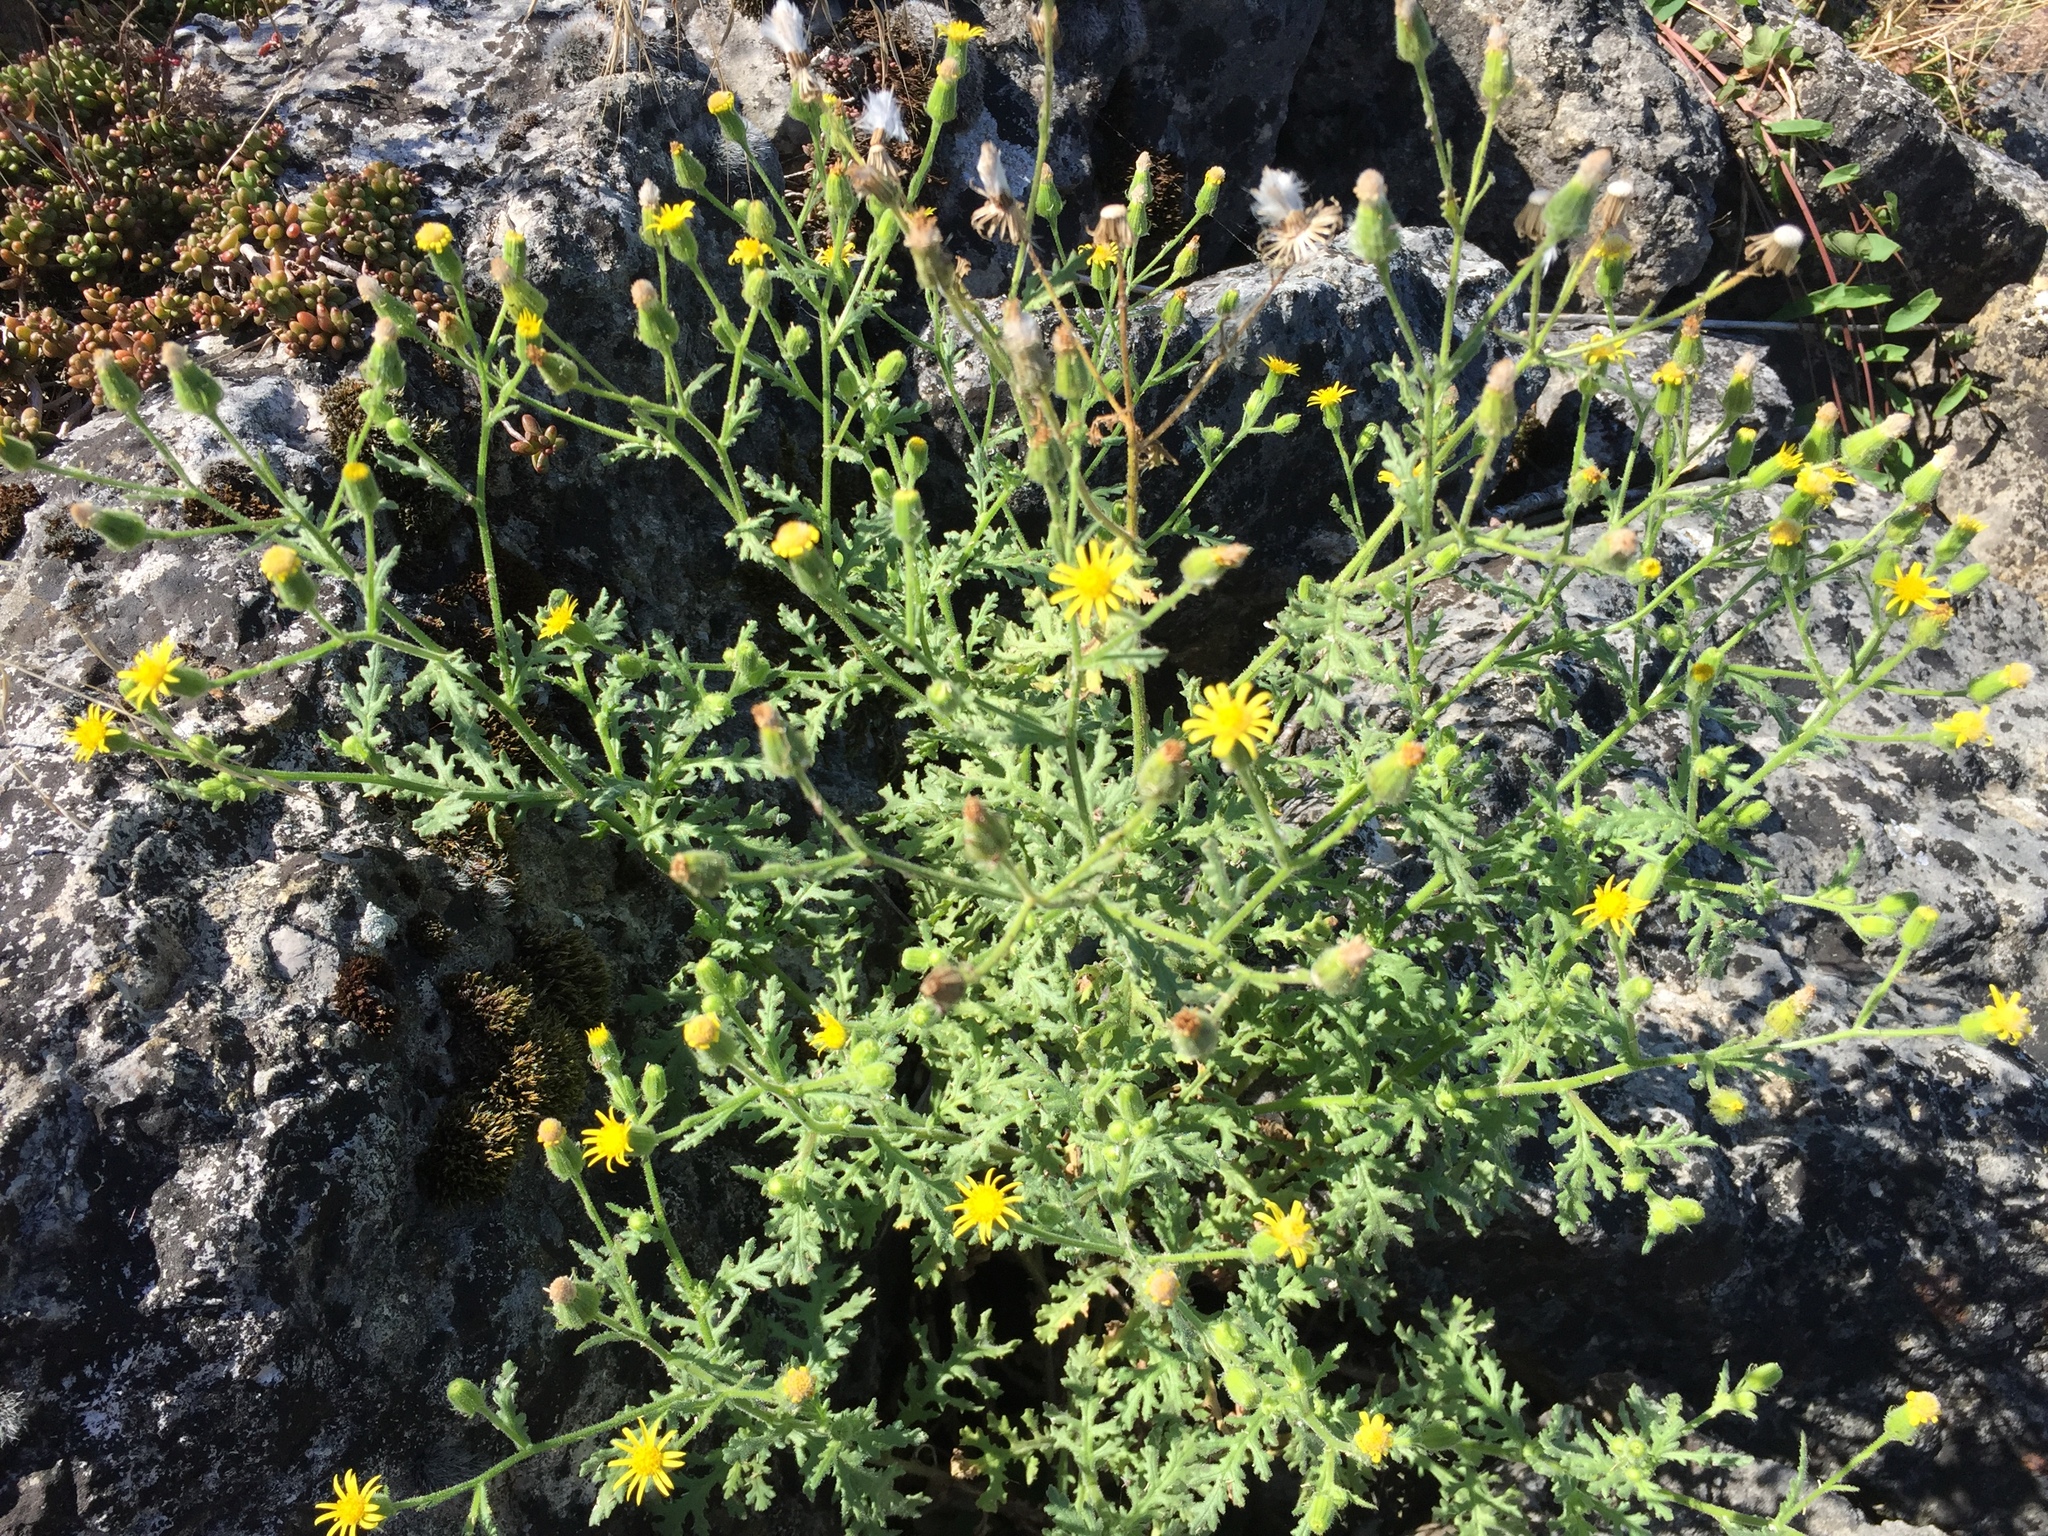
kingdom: Plantae
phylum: Tracheophyta
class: Magnoliopsida
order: Asterales
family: Asteraceae
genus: Senecio
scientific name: Senecio viscosus
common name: Sticky groundsel
